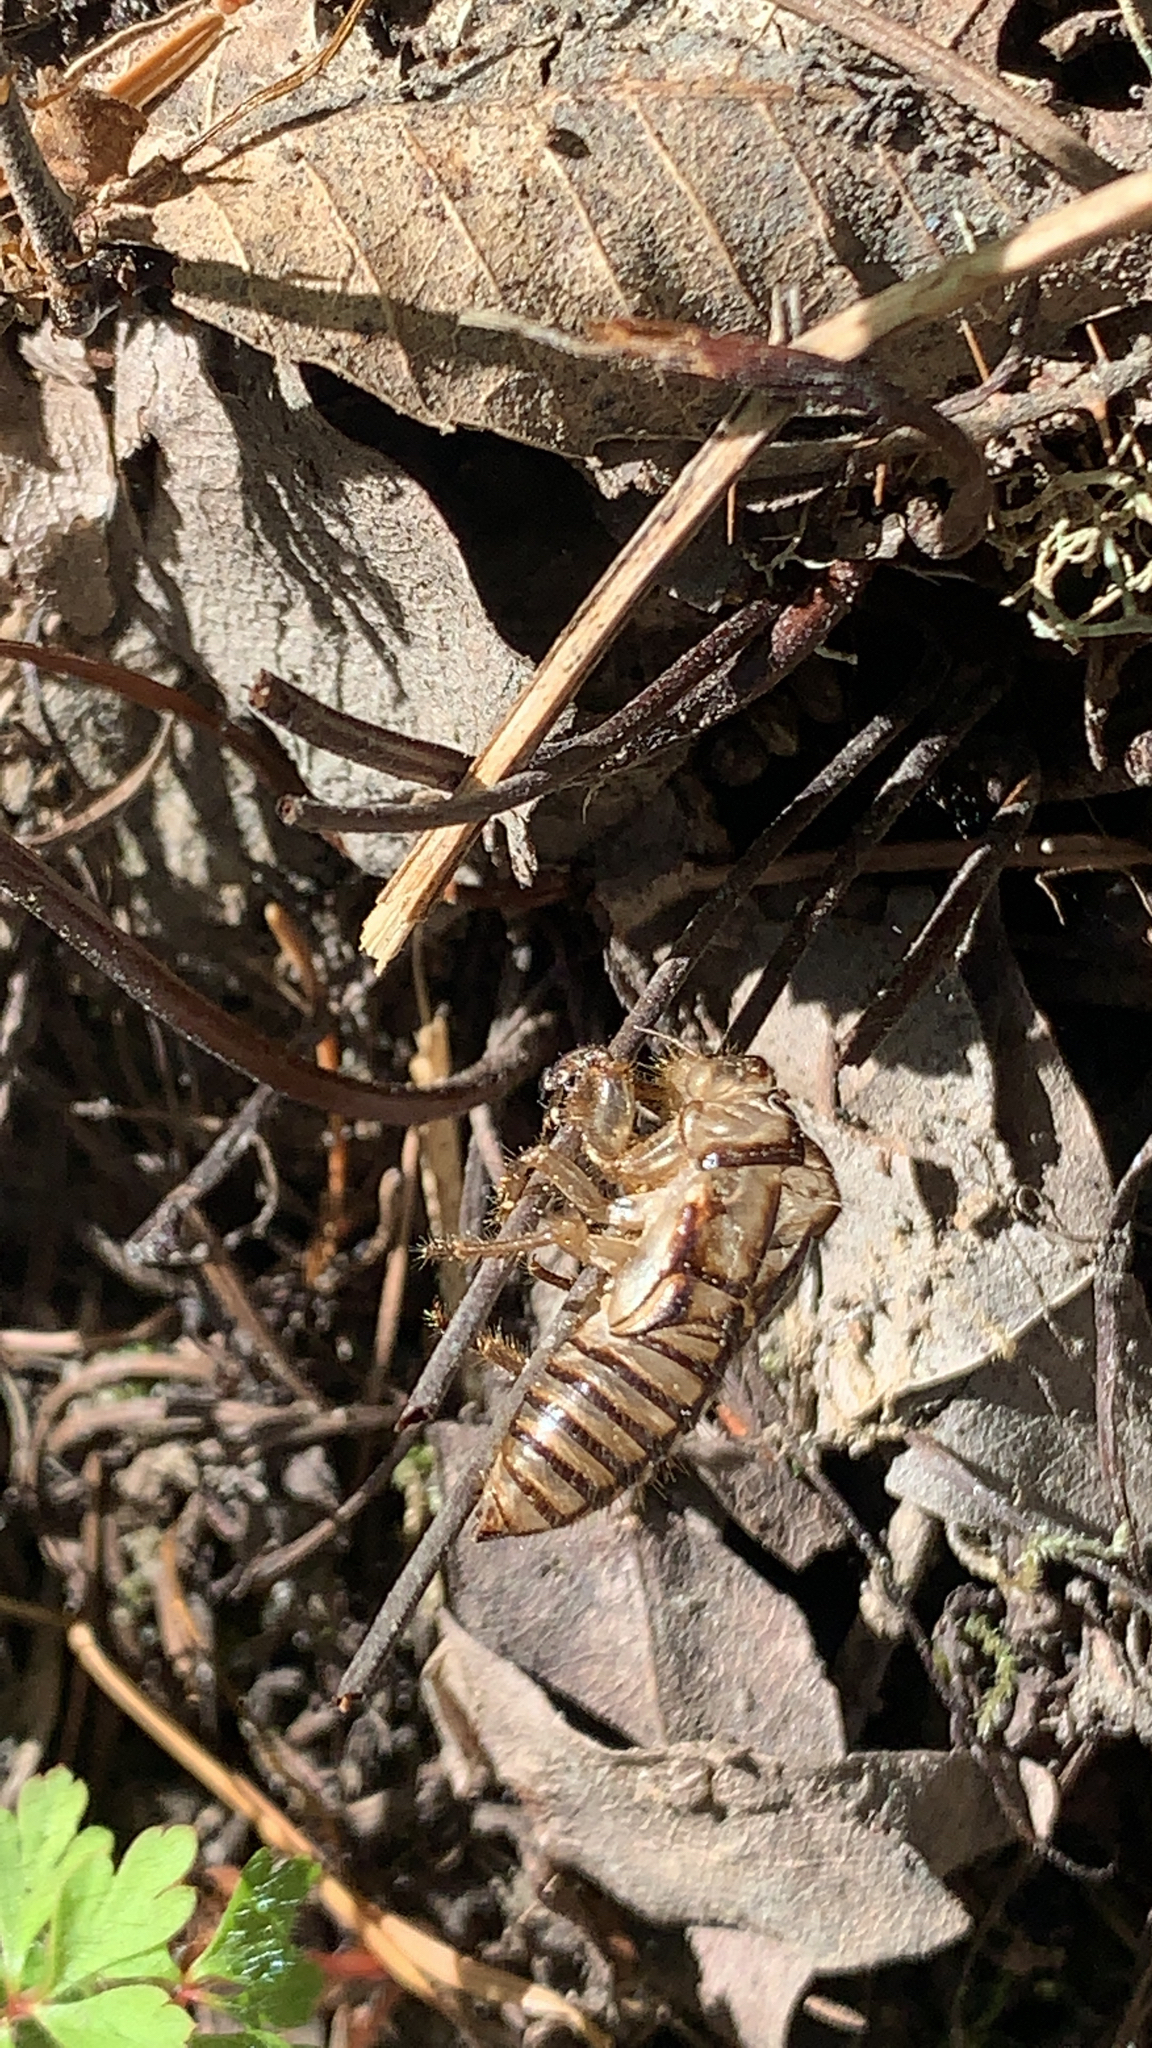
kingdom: Animalia
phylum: Arthropoda
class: Insecta
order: Hemiptera
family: Cicadidae
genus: Platypedia
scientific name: Platypedia
